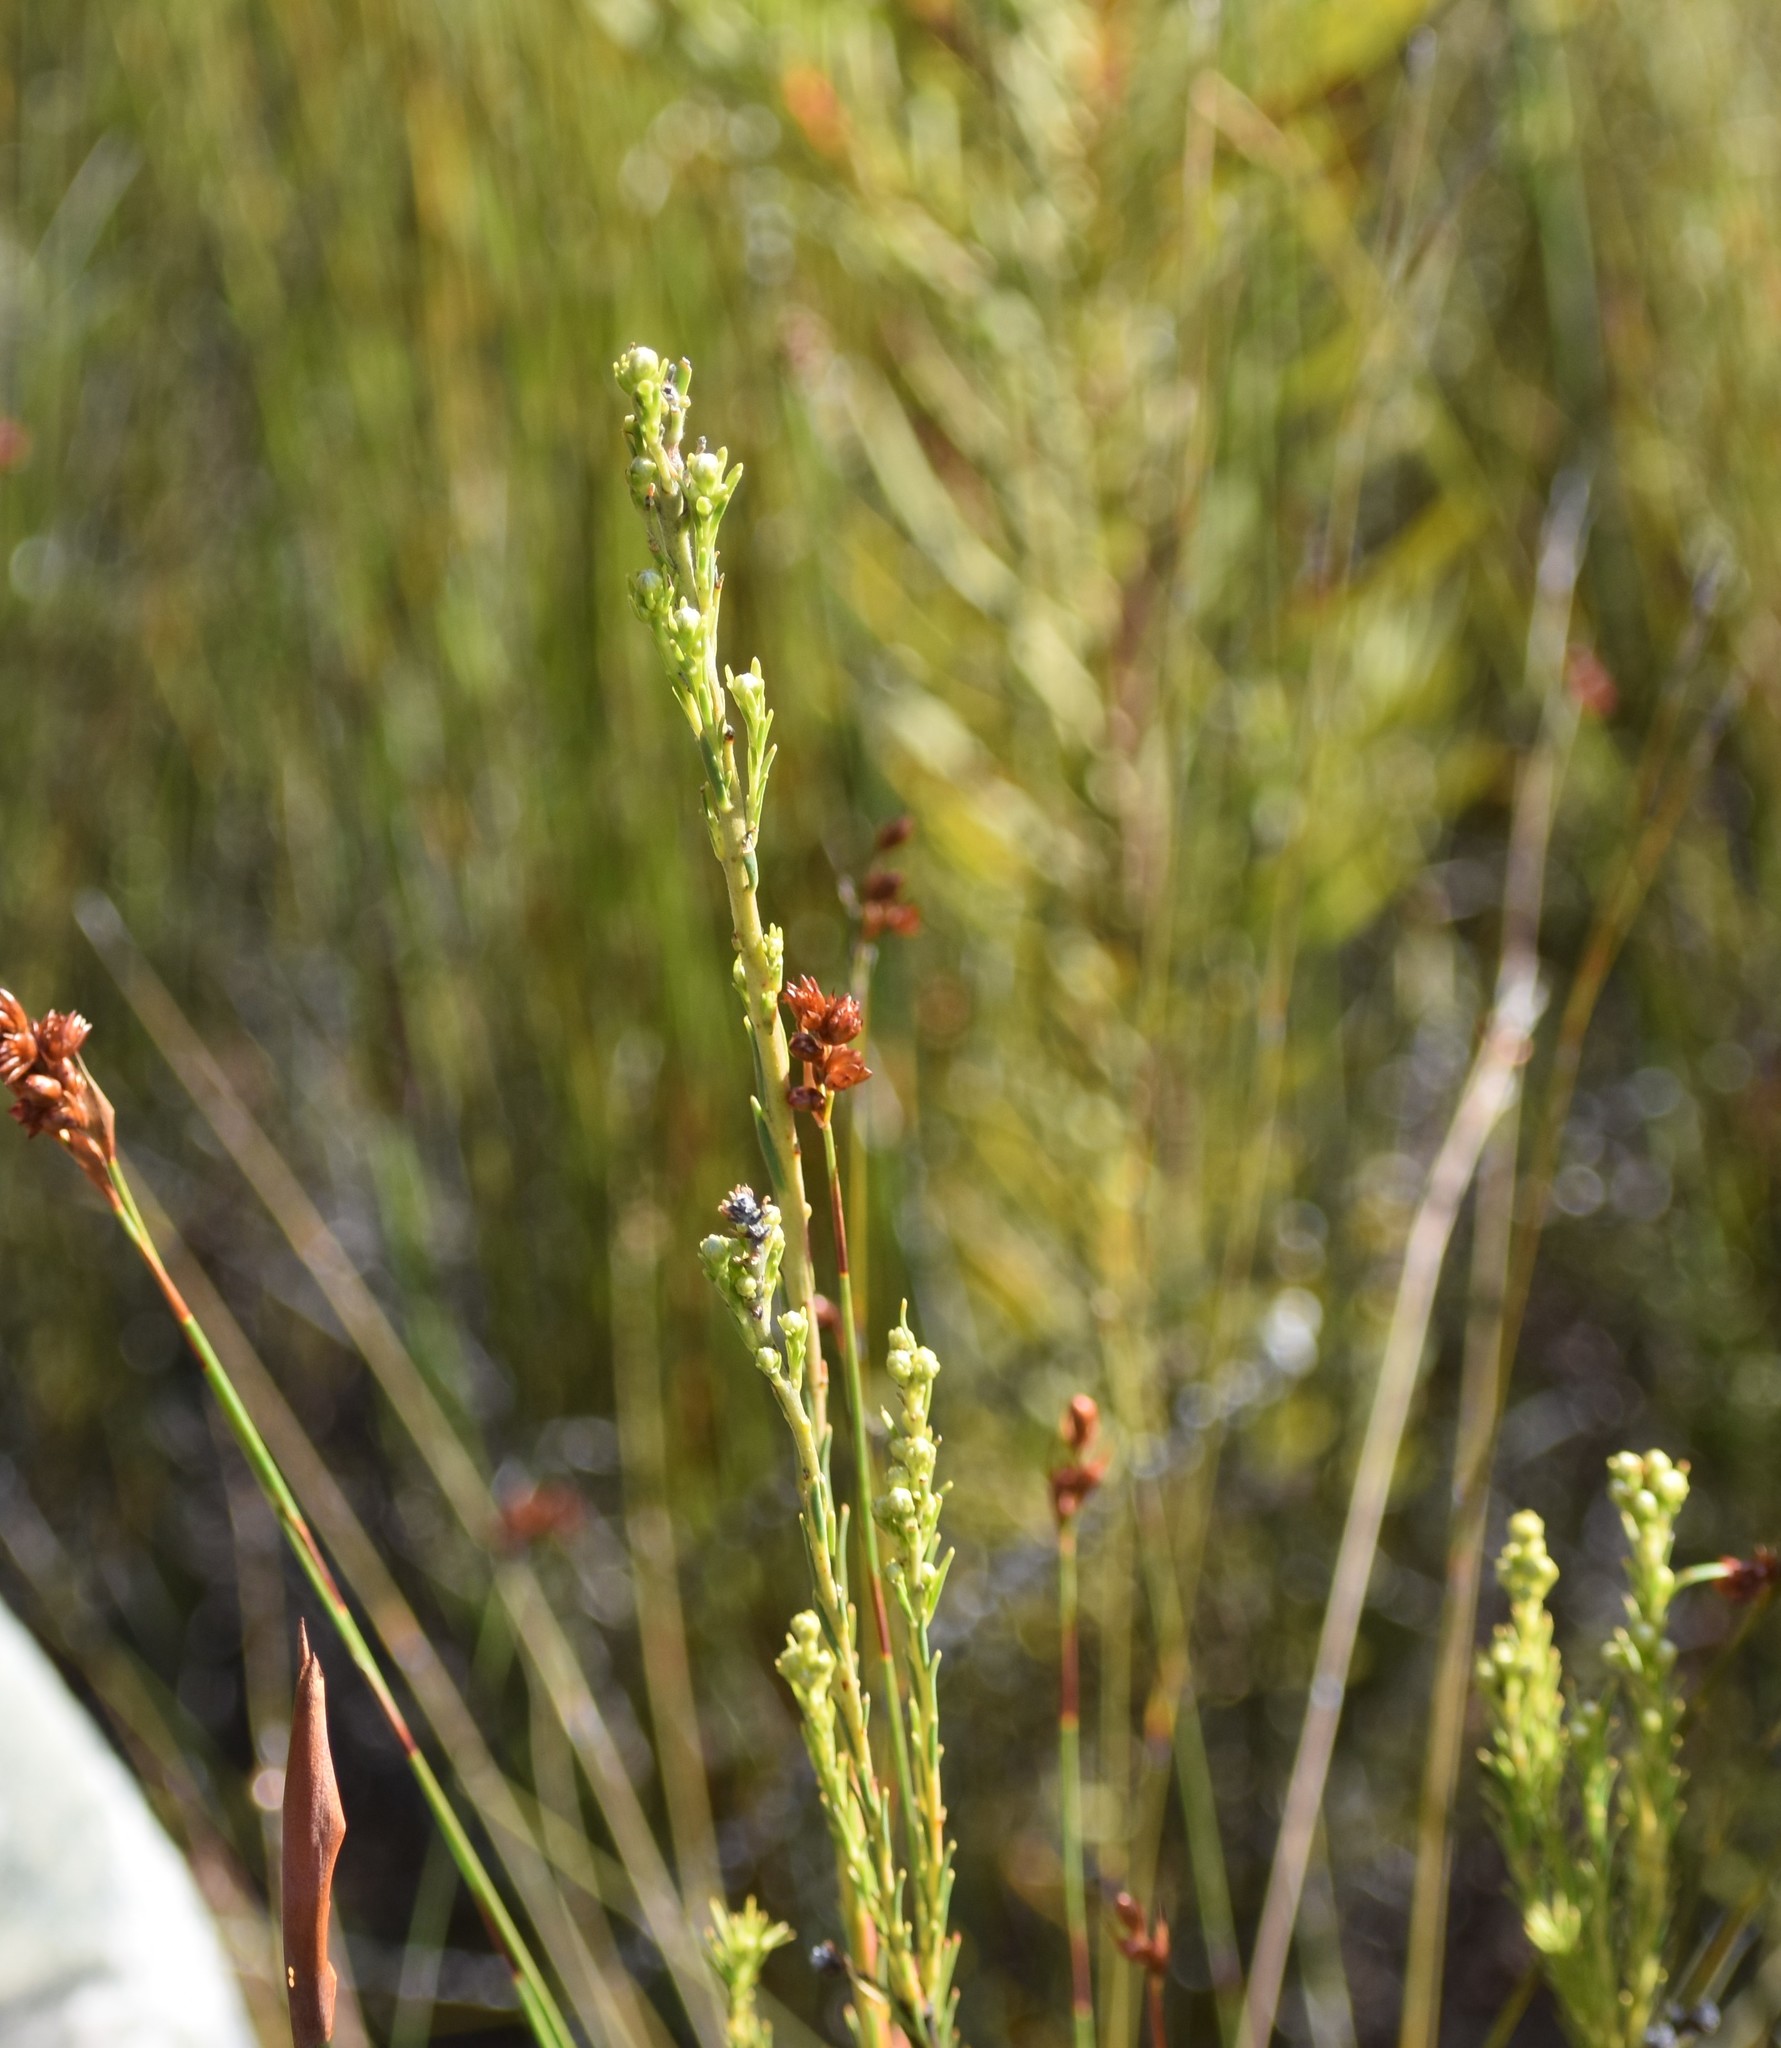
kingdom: Plantae
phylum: Tracheophyta
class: Magnoliopsida
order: Proteales
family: Proteaceae
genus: Leucadendron
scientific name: Leucadendron ericifolium
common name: Erica-leaved conebush
